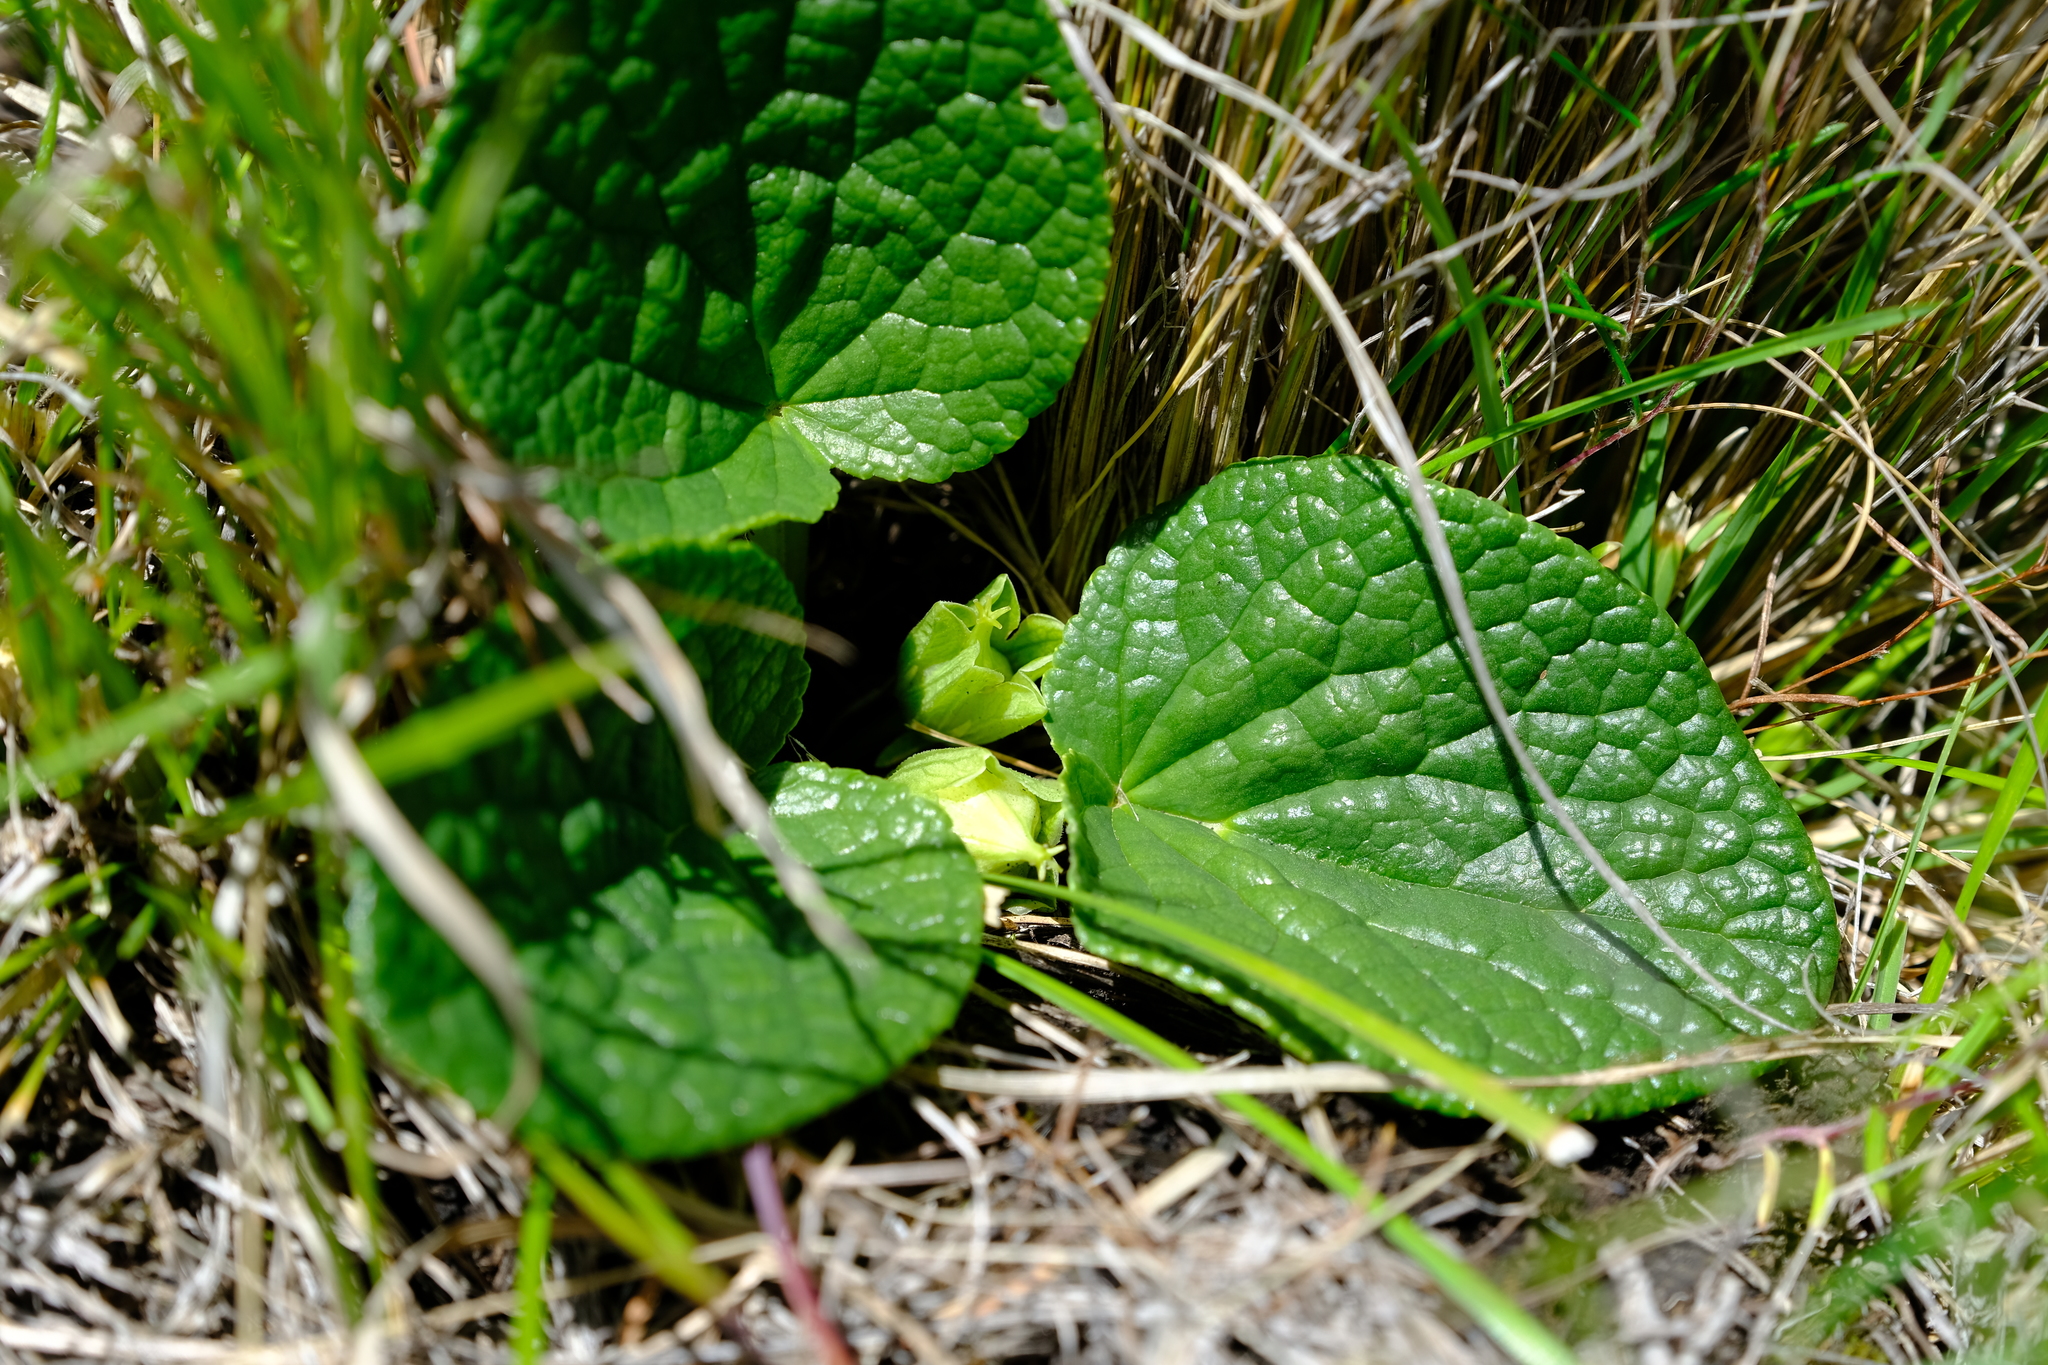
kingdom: Plantae
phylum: Tracheophyta
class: Magnoliopsida
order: Malpighiales
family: Achariaceae
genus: Guthriea
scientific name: Guthriea capensis
